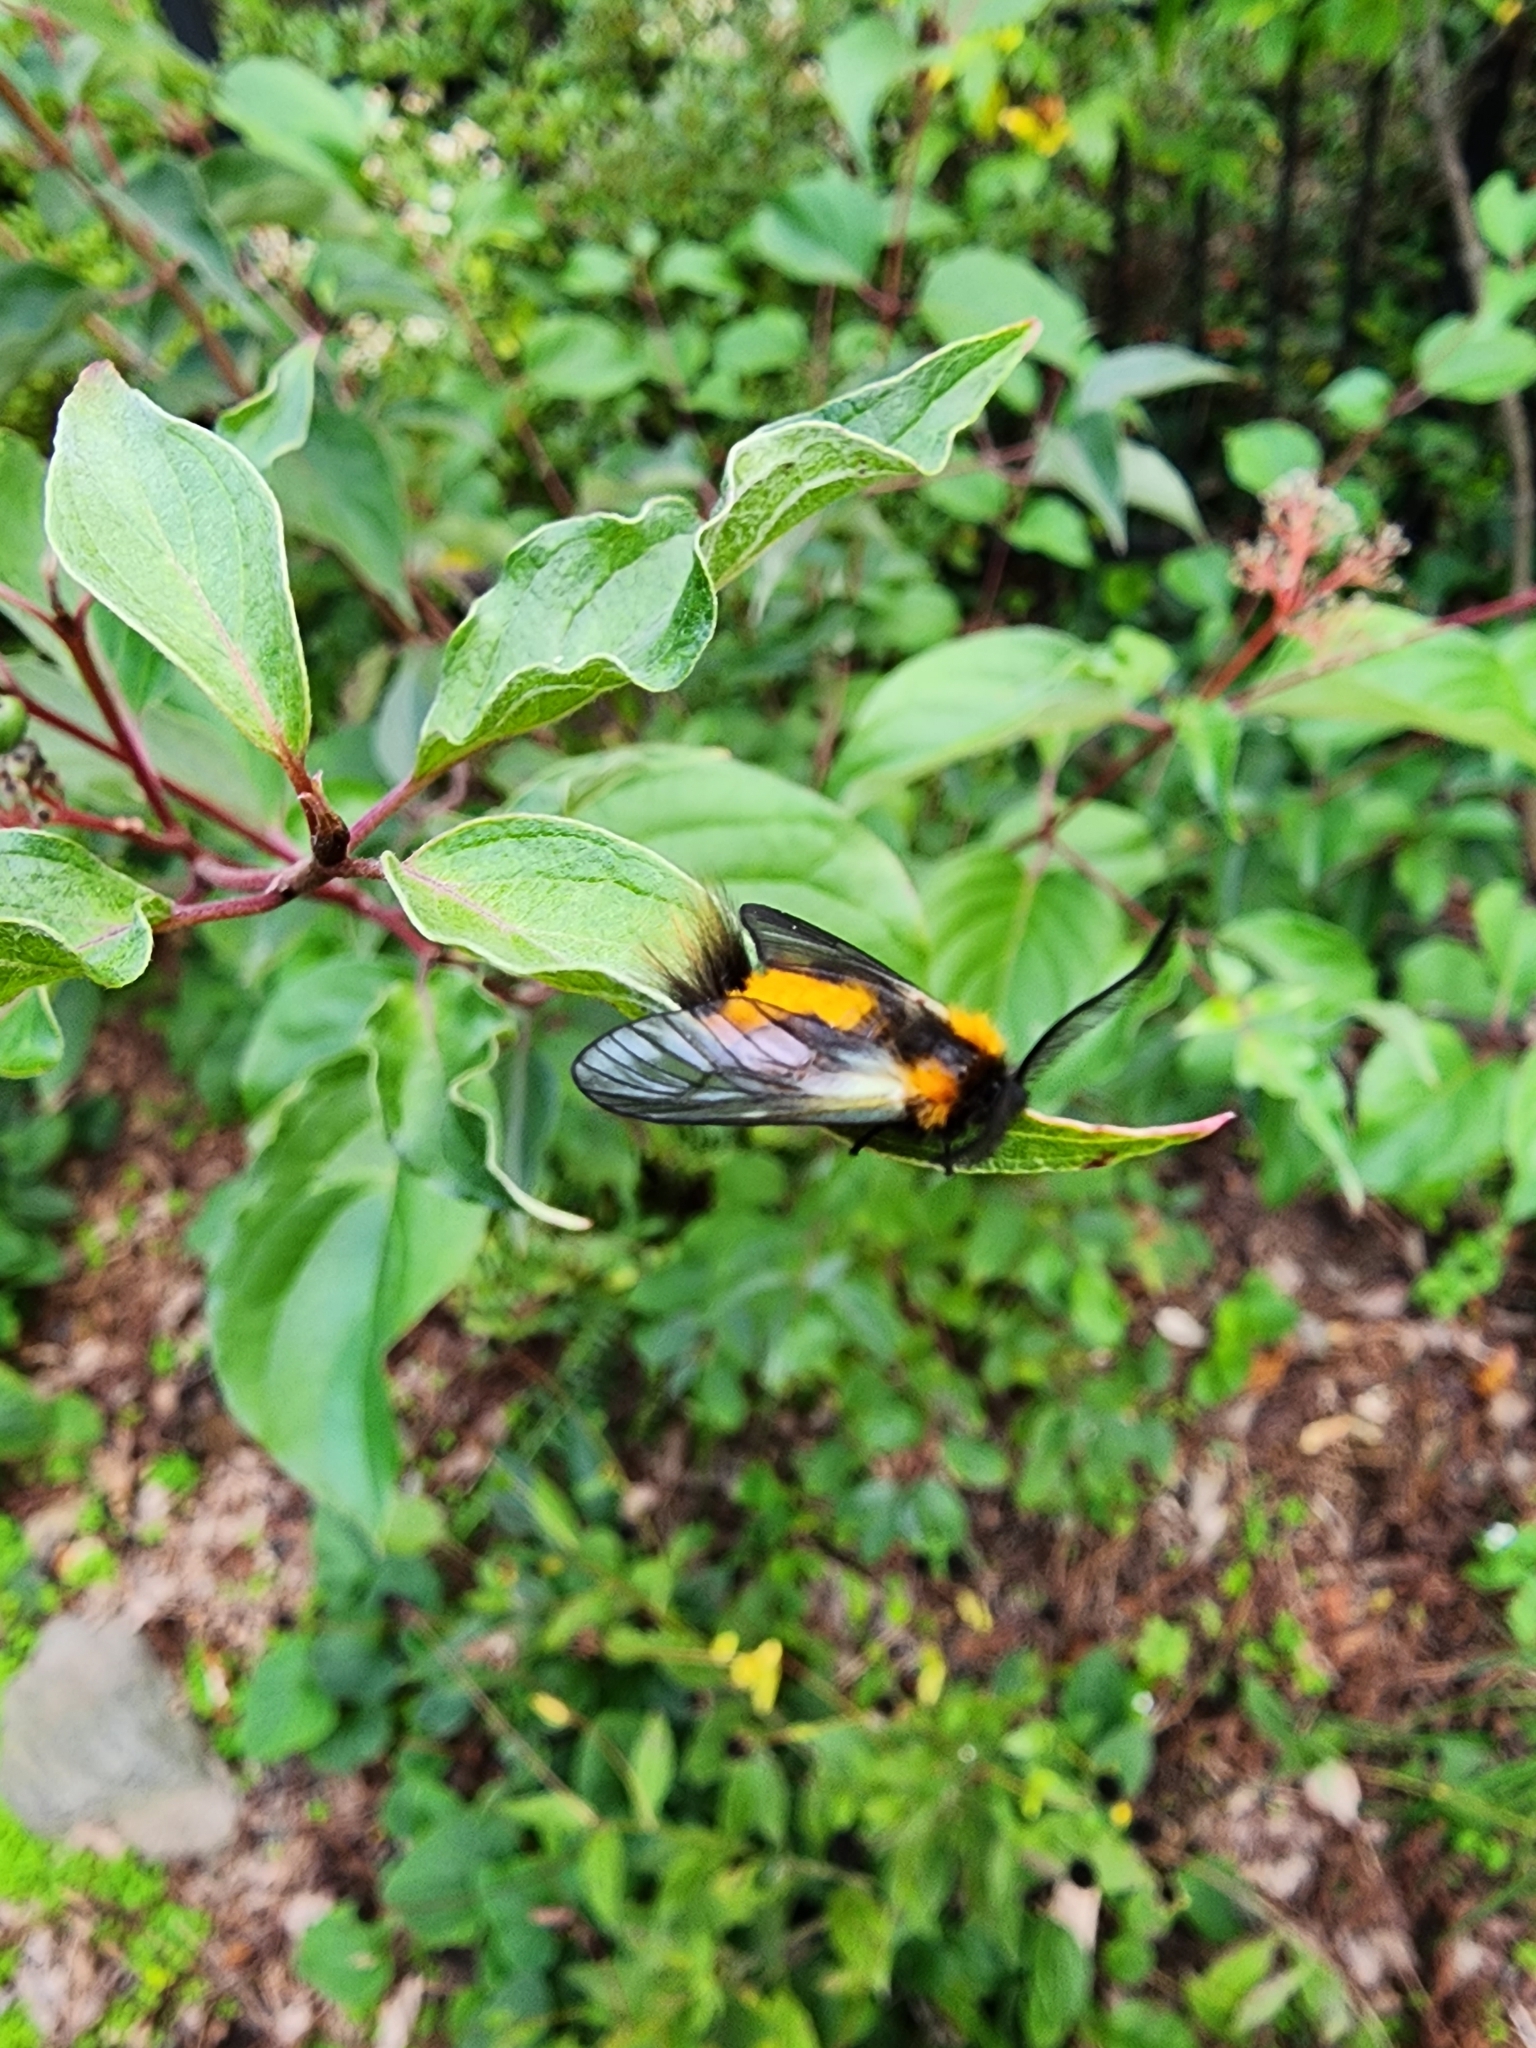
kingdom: Animalia
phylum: Arthropoda
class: Insecta
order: Lepidoptera
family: Zygaenidae
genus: Sinica
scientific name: Sinica sinica
